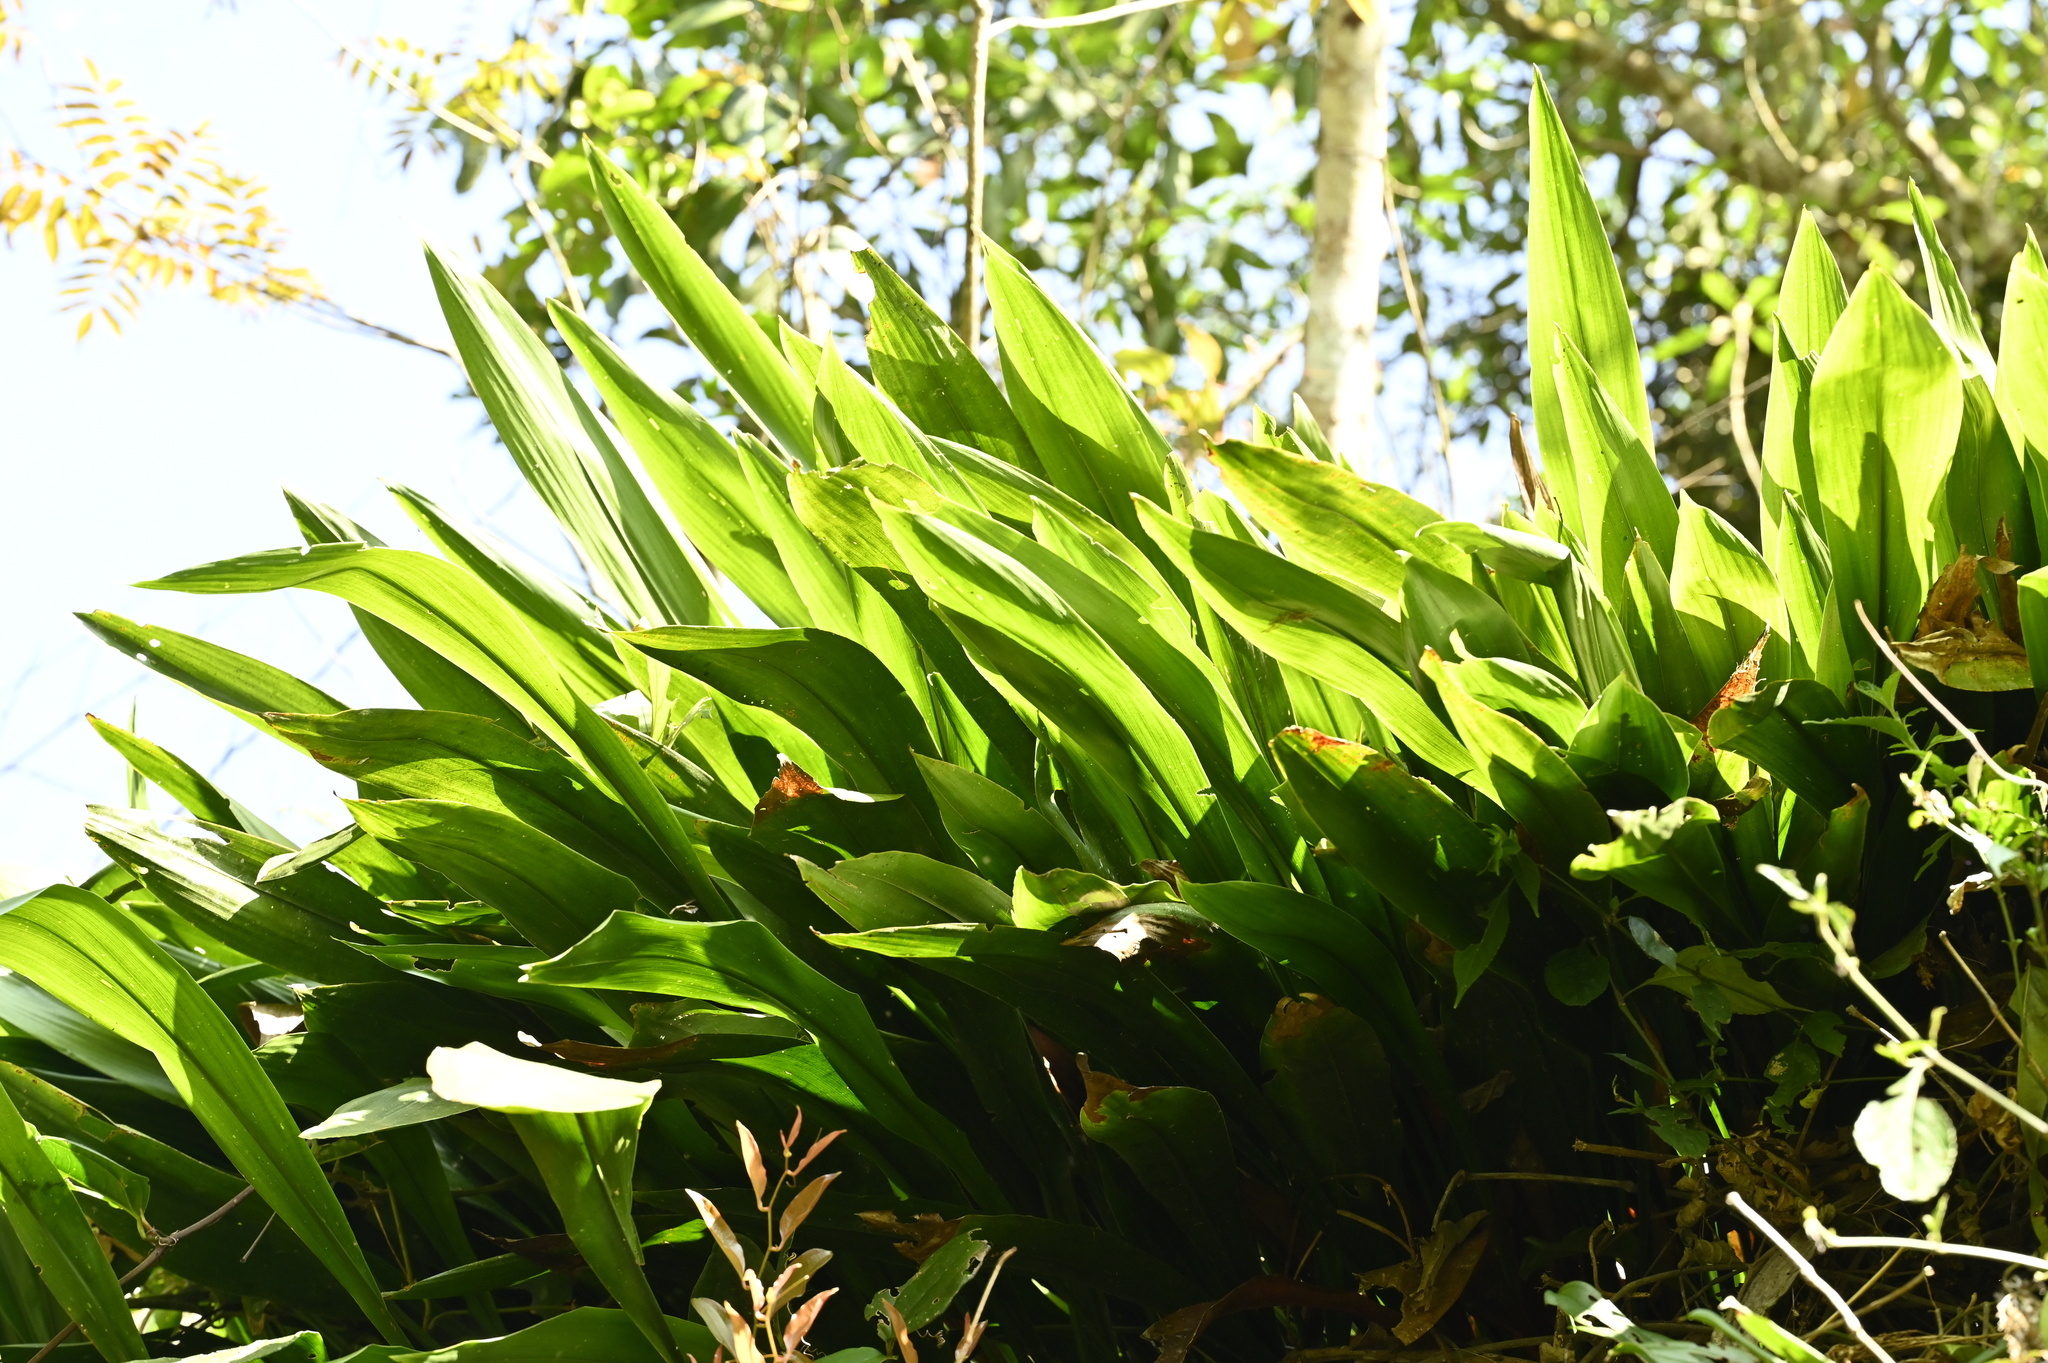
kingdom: Plantae
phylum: Tracheophyta
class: Liliopsida
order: Asparagales
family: Asparagaceae
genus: Aspidistra
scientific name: Aspidistra attenuata
